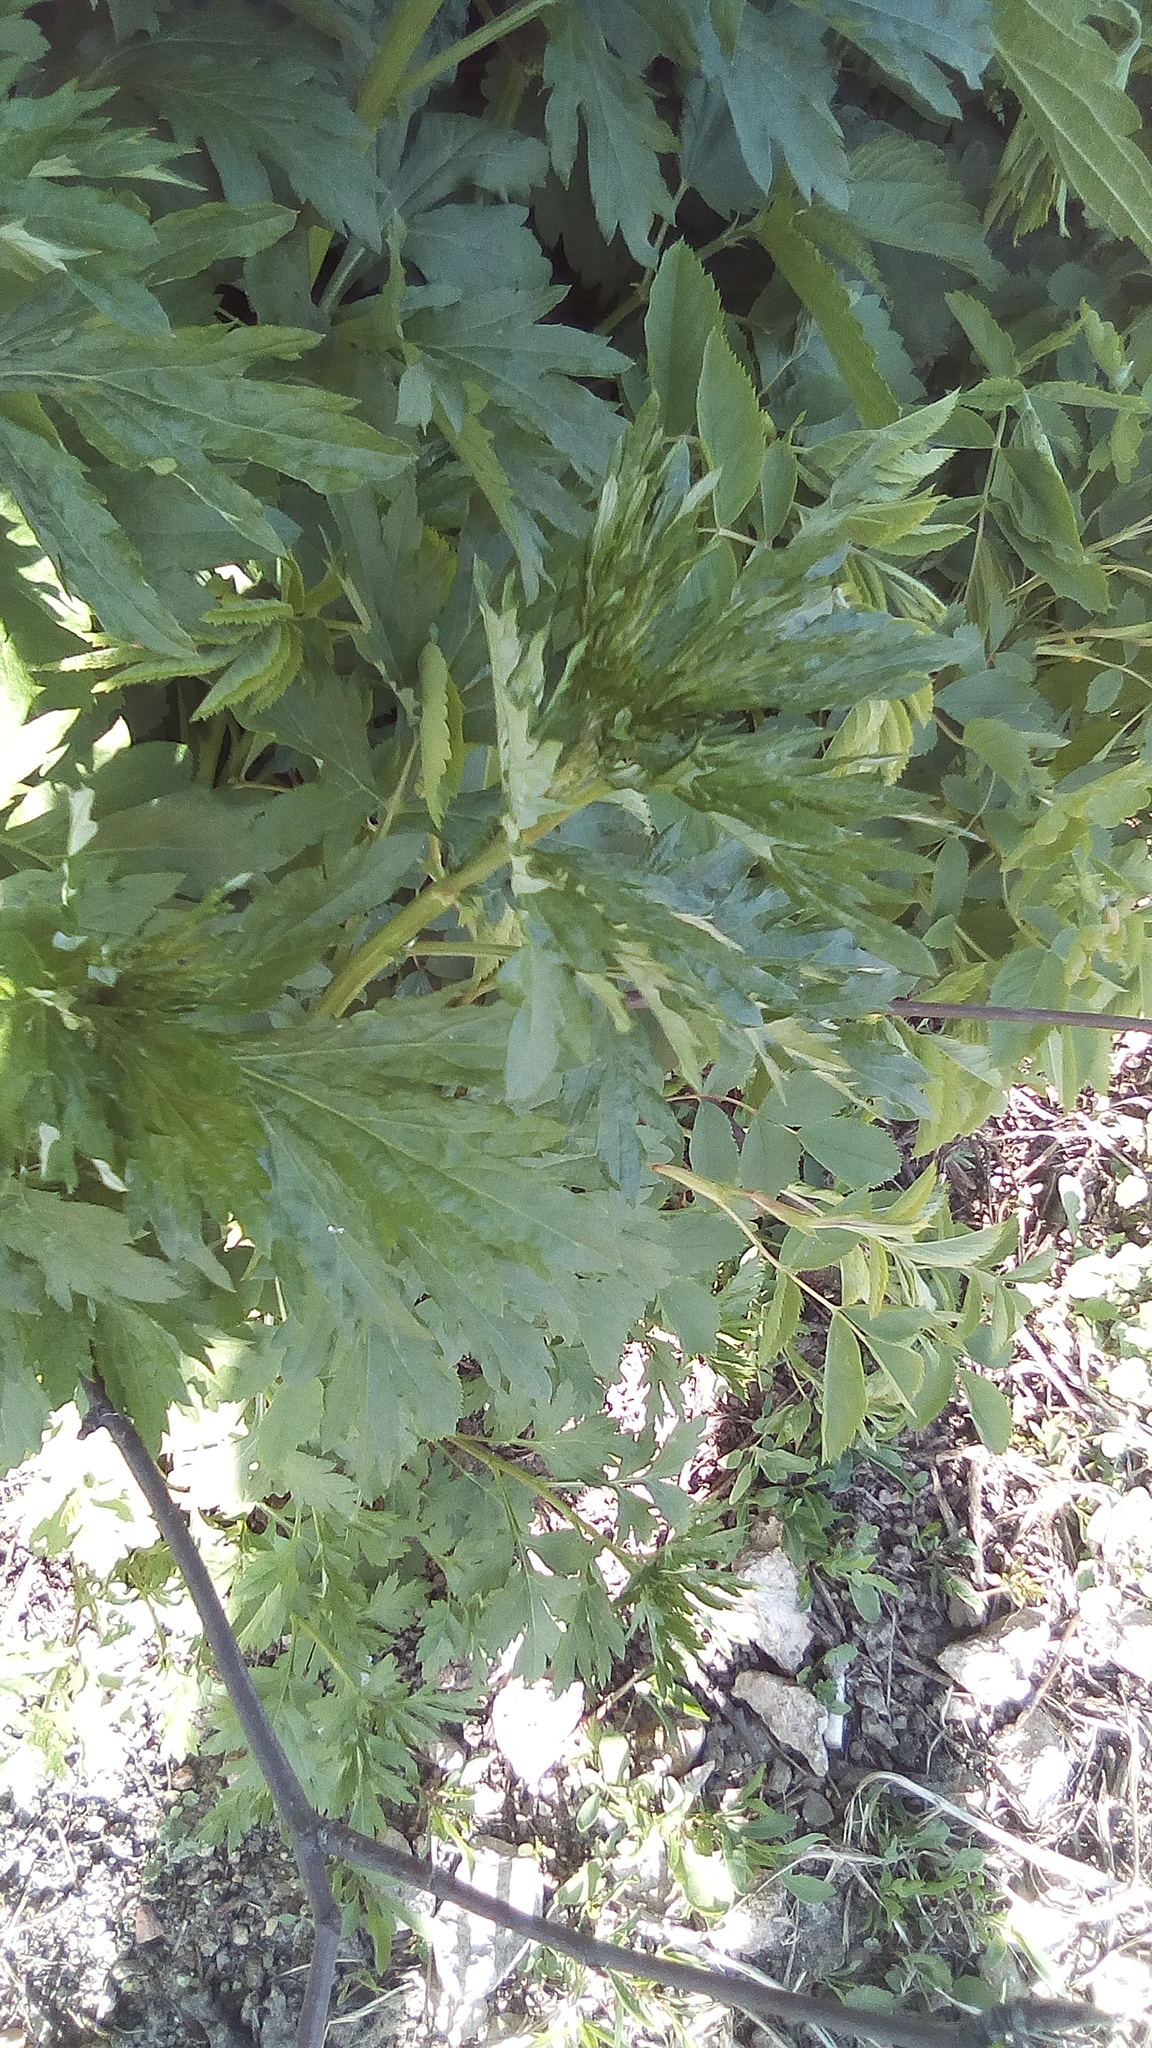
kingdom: Plantae
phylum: Tracheophyta
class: Magnoliopsida
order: Asterales
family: Asteraceae
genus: Artemisia
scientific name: Artemisia vulgaris
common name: Mugwort
